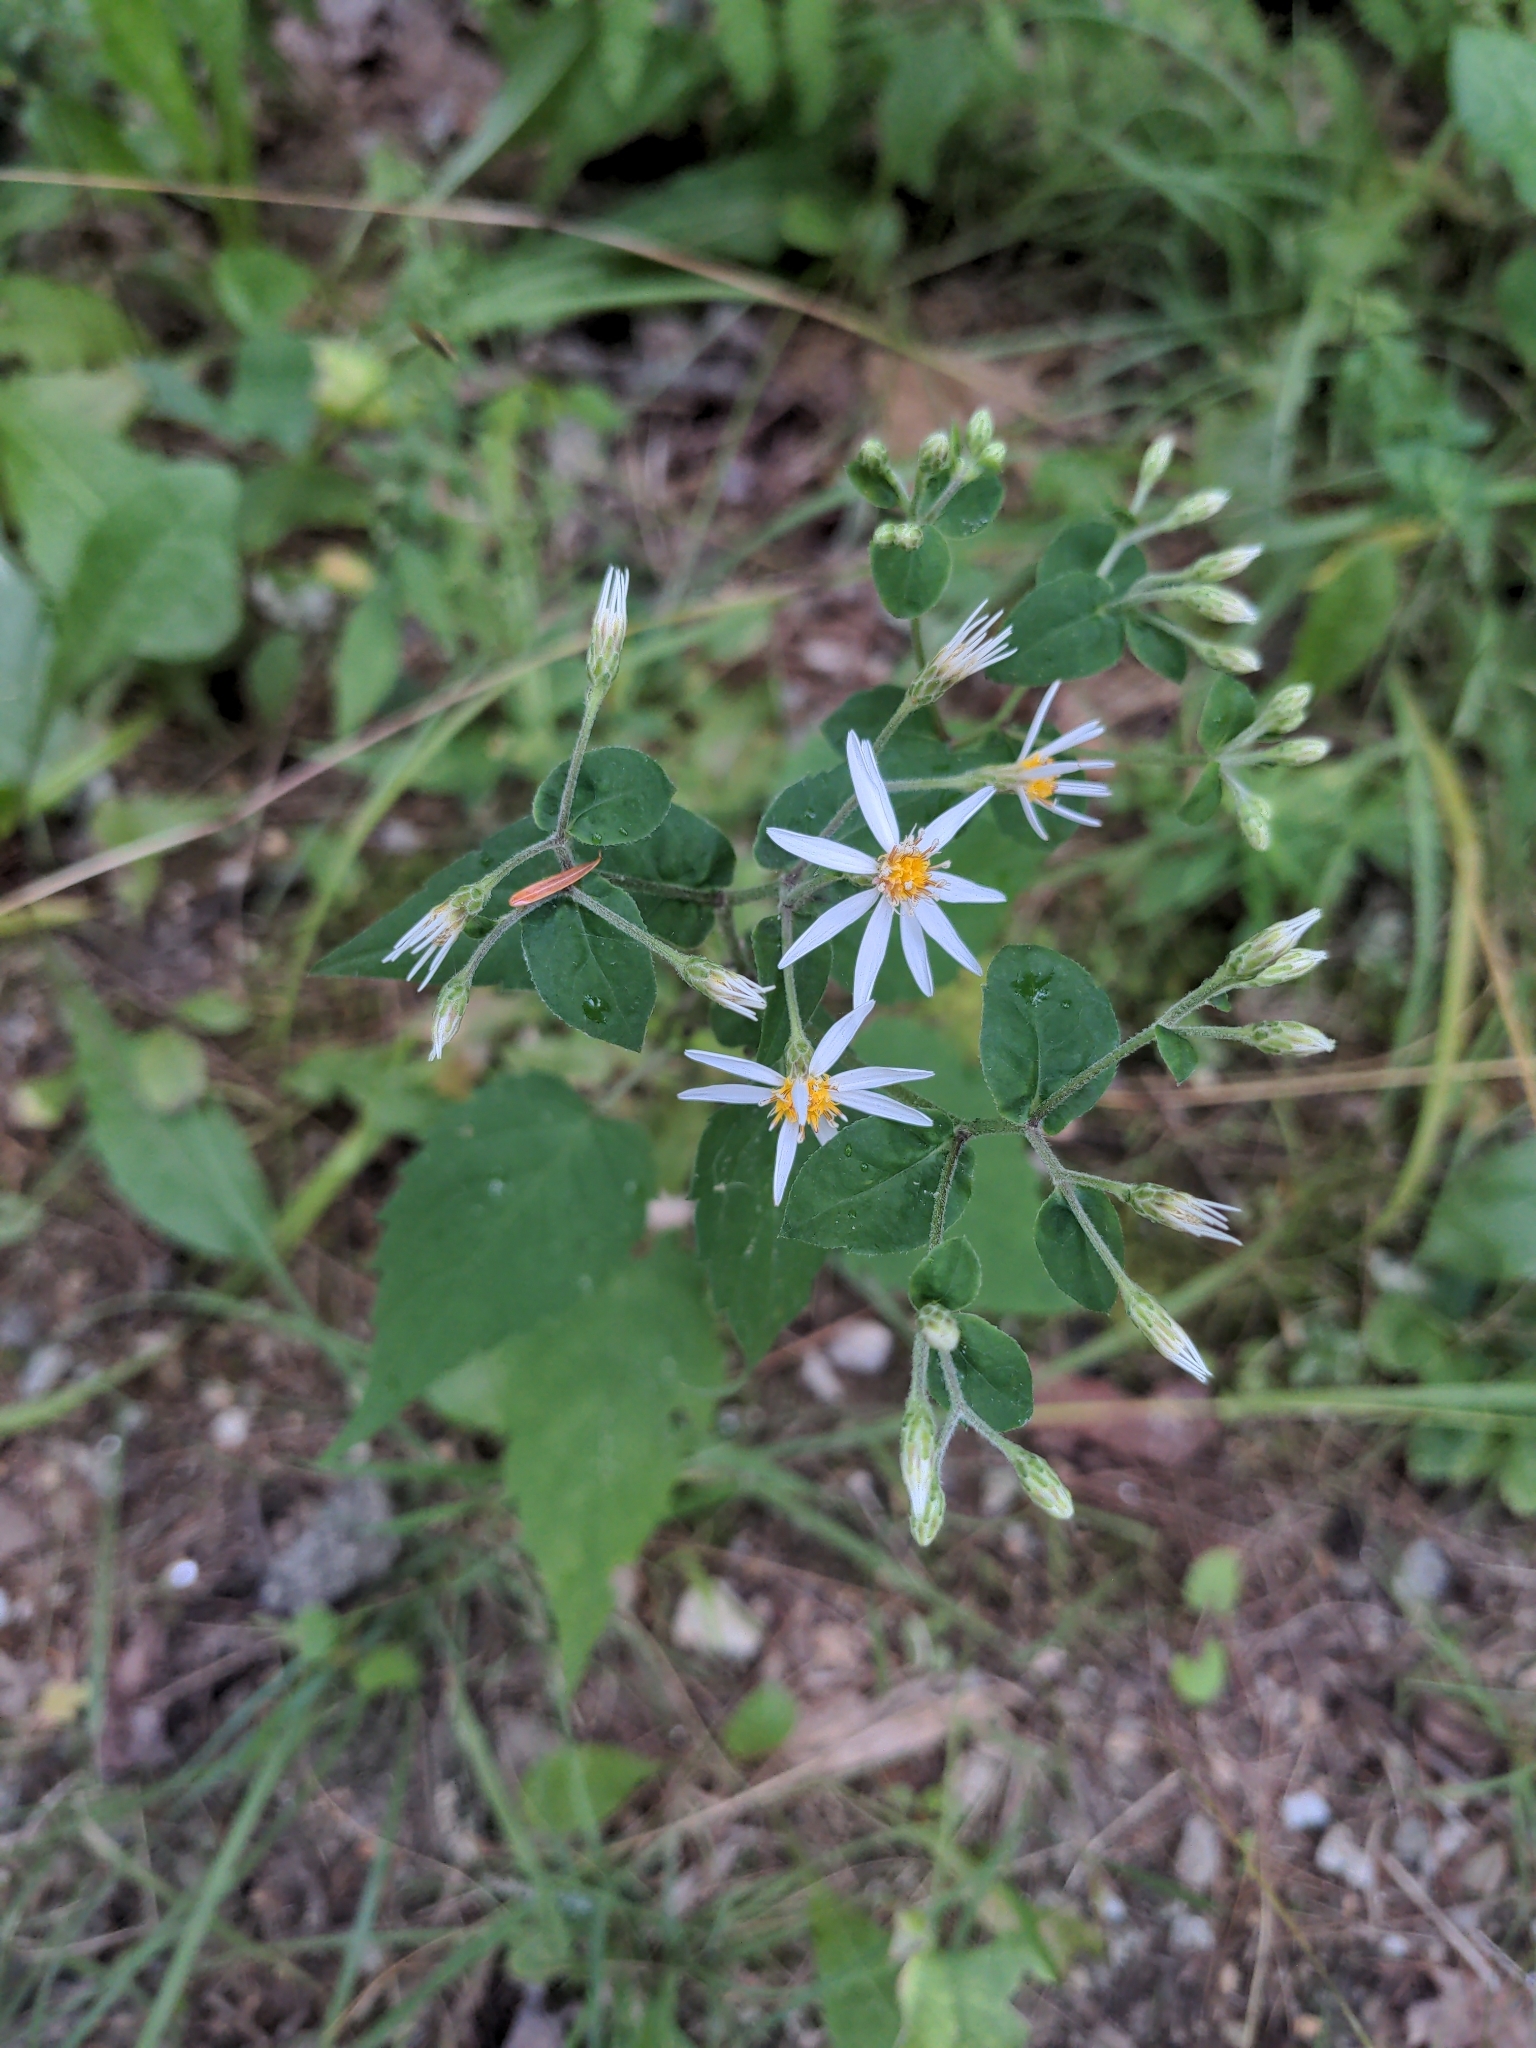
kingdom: Plantae
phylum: Tracheophyta
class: Magnoliopsida
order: Asterales
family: Asteraceae
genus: Eurybia
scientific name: Eurybia macrophylla
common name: Big-leaved aster
